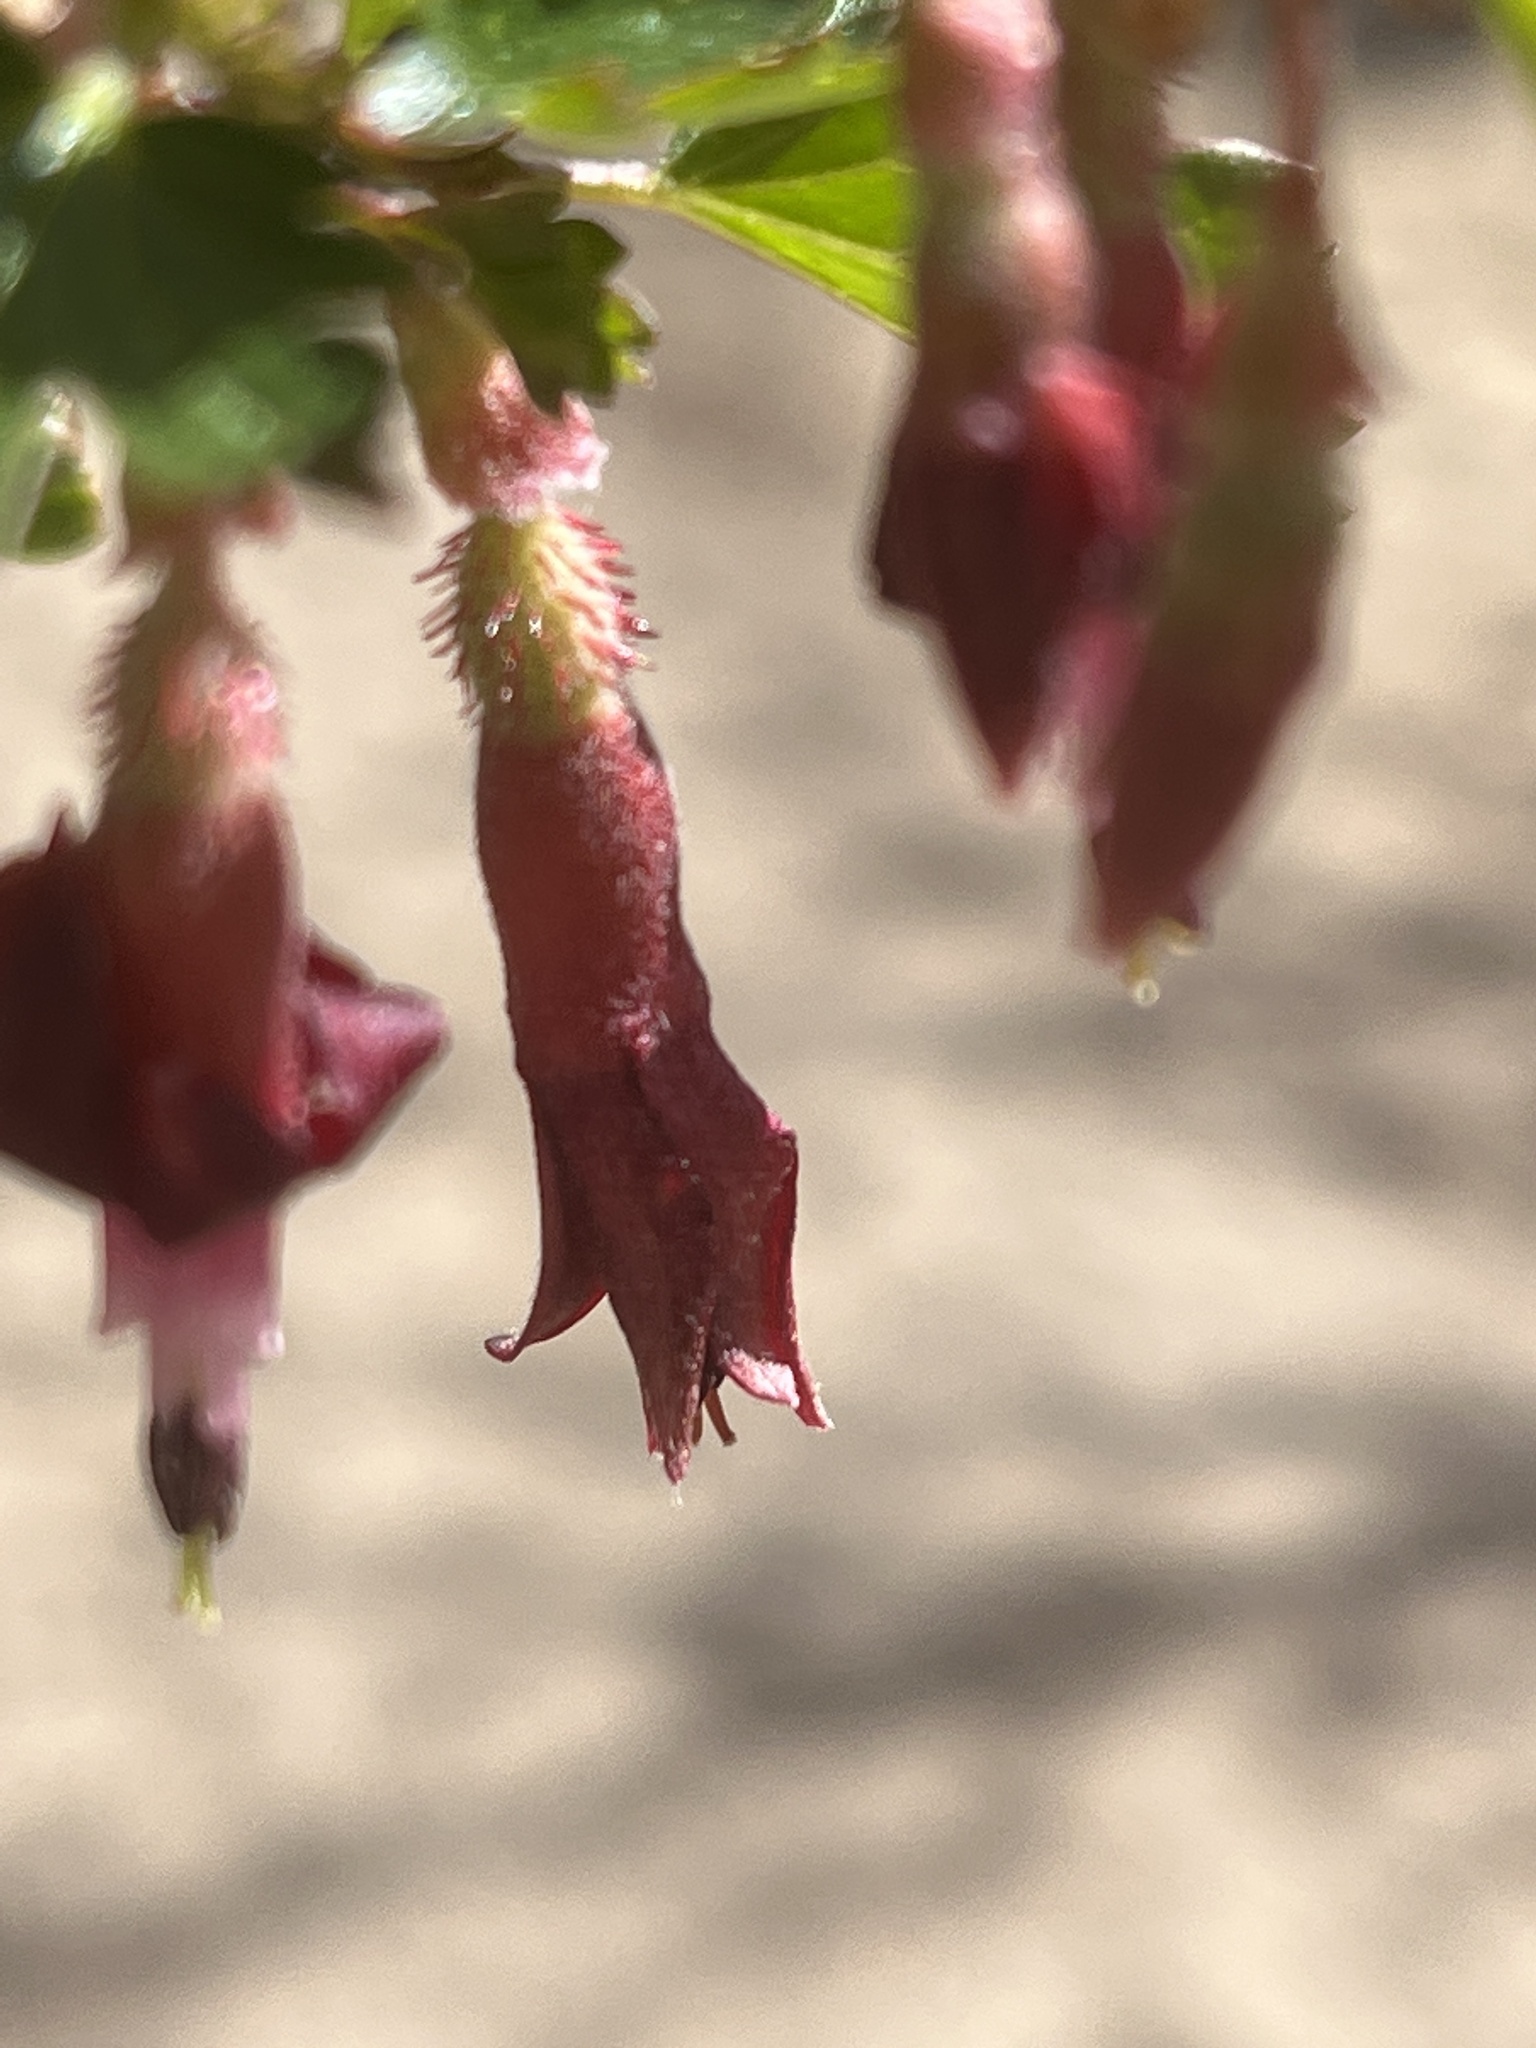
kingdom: Plantae
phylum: Tracheophyta
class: Magnoliopsida
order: Saxifragales
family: Grossulariaceae
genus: Ribes
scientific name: Ribes roezlii
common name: Sierra gooseberry
